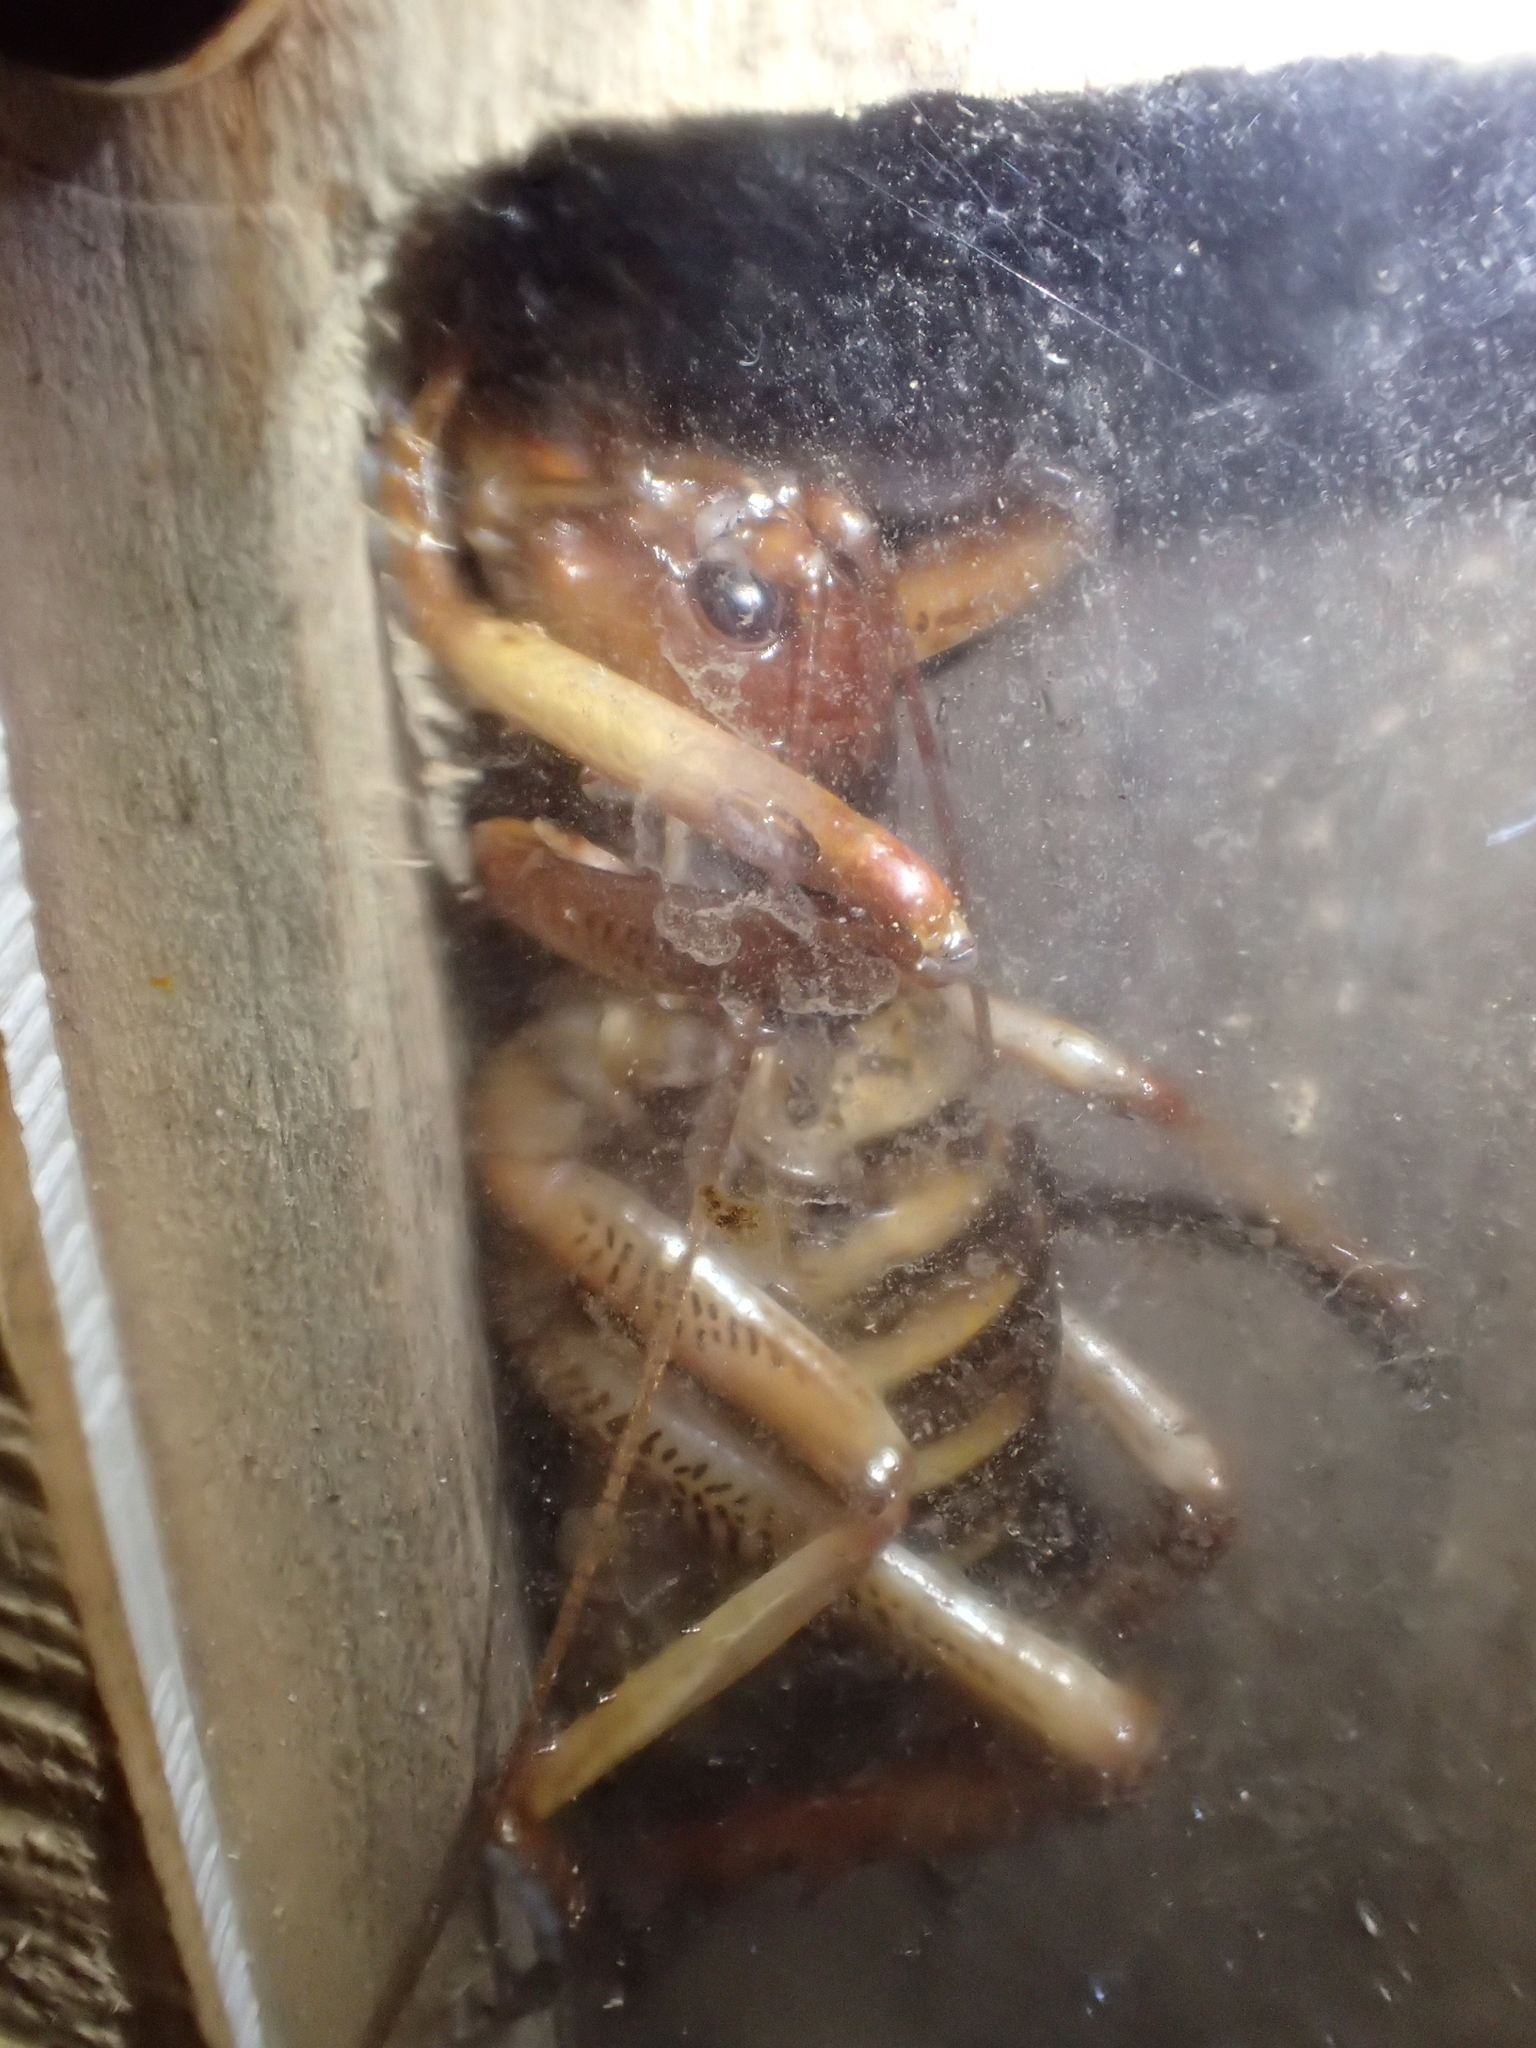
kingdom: Animalia
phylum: Arthropoda
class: Insecta
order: Orthoptera
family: Anostostomatidae
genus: Hemideina
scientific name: Hemideina crassidens
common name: Wellington tree weta
